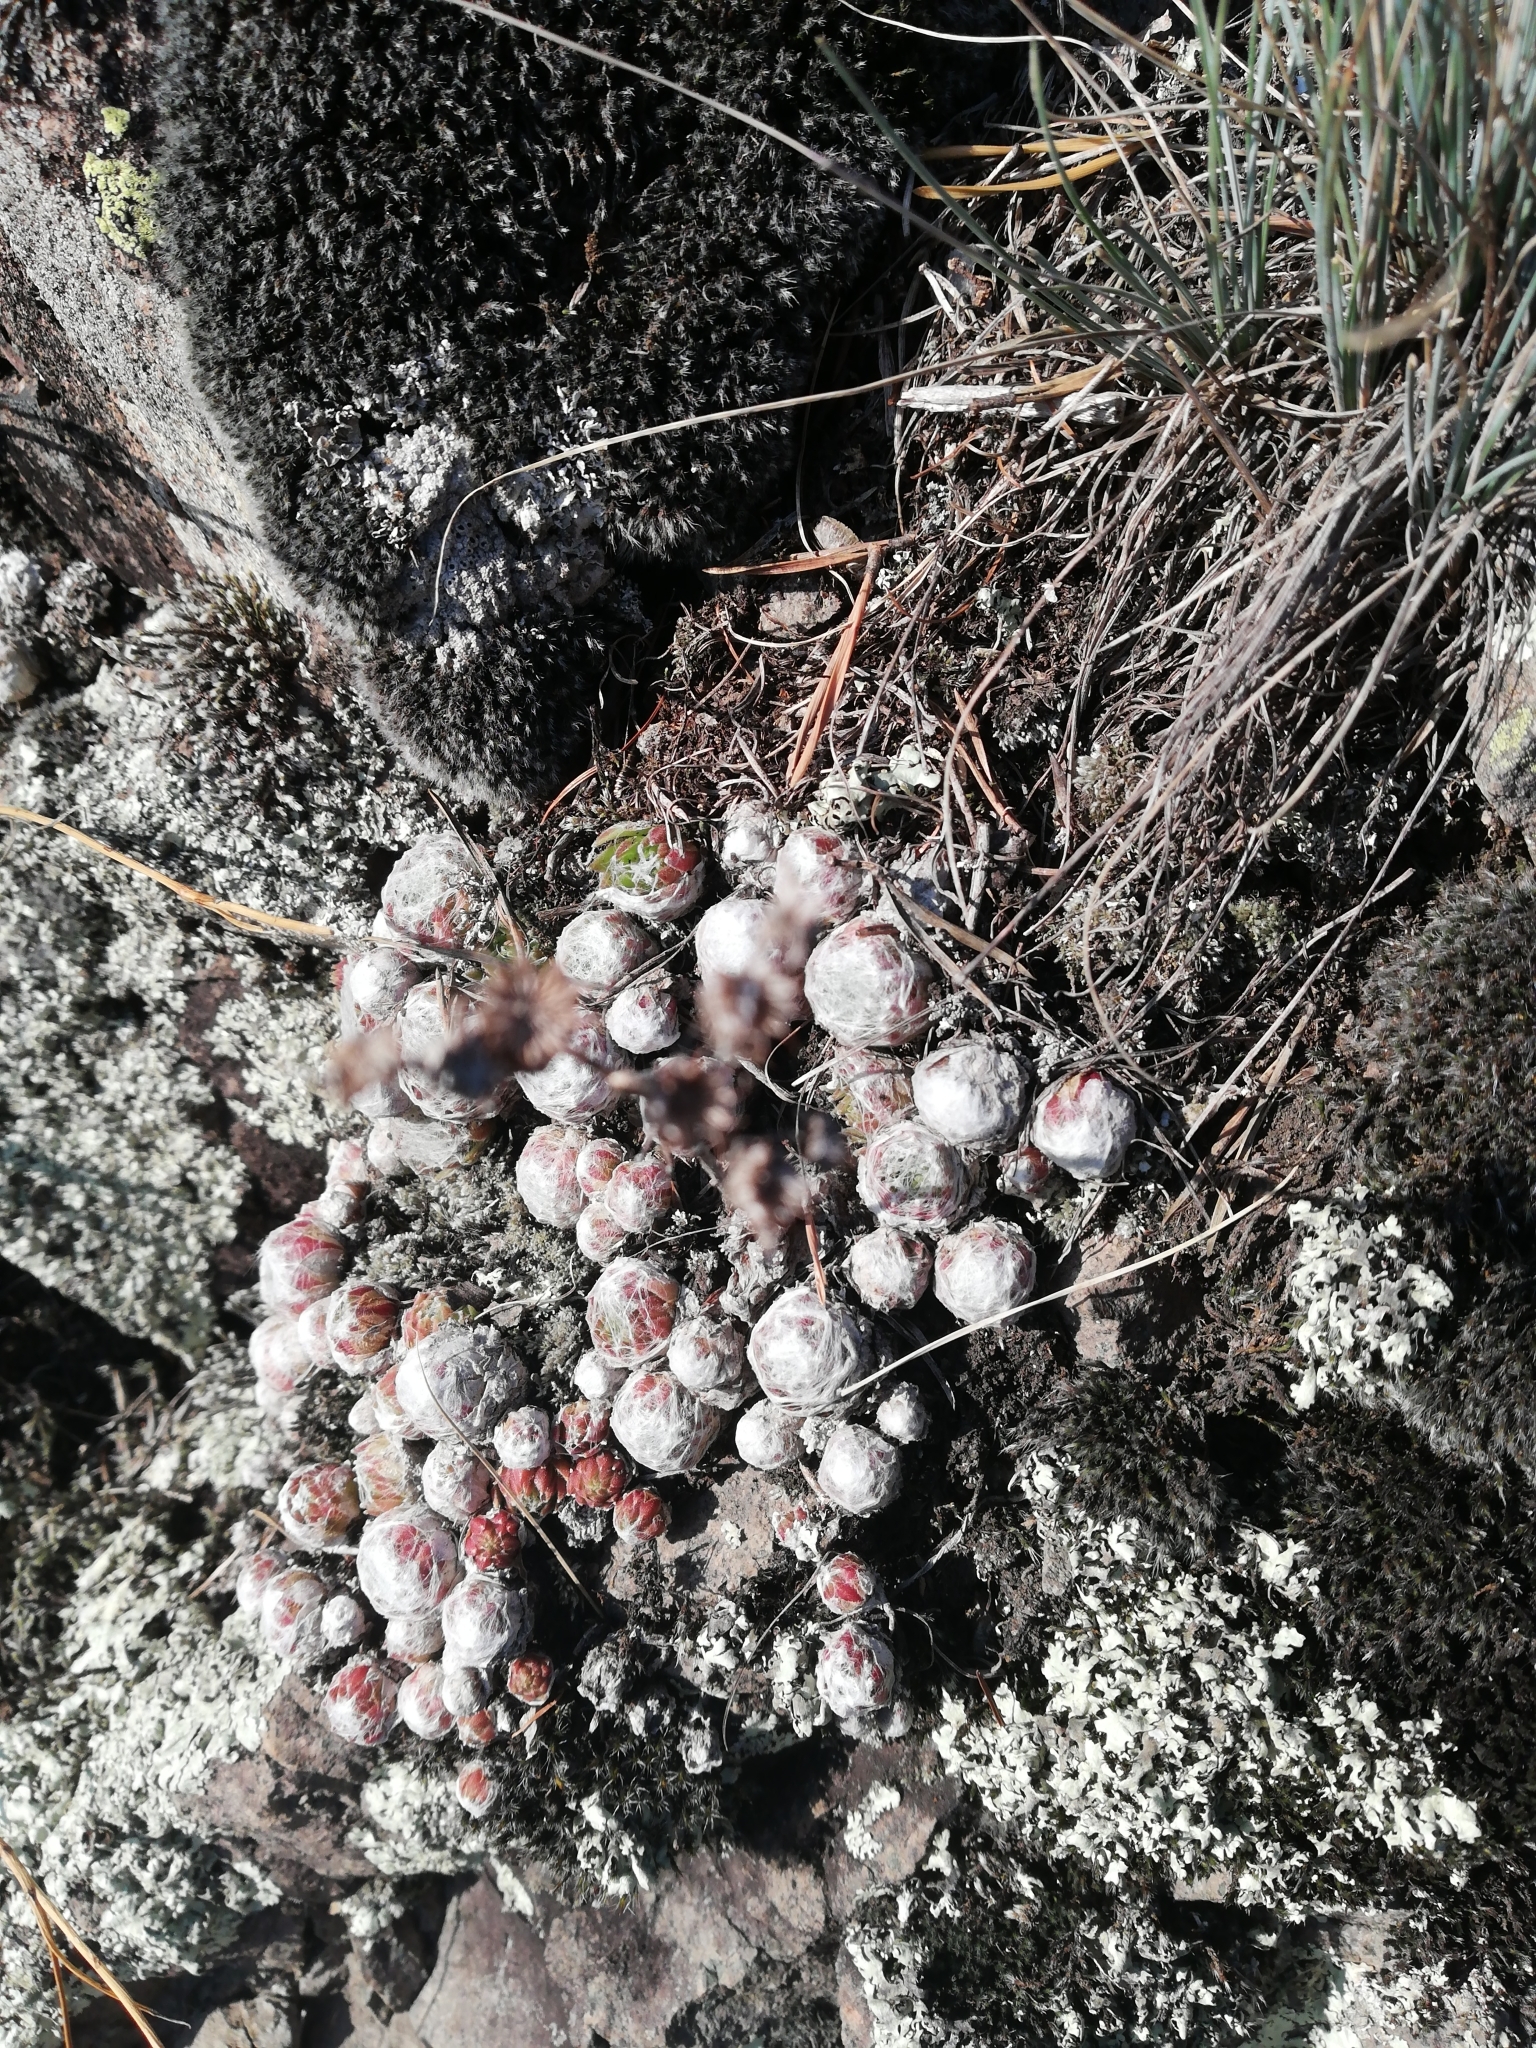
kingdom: Plantae
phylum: Tracheophyta
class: Magnoliopsida
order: Saxifragales
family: Crassulaceae
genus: Sempervivum
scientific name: Sempervivum arachnoideum
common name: Cobweb house-leek
